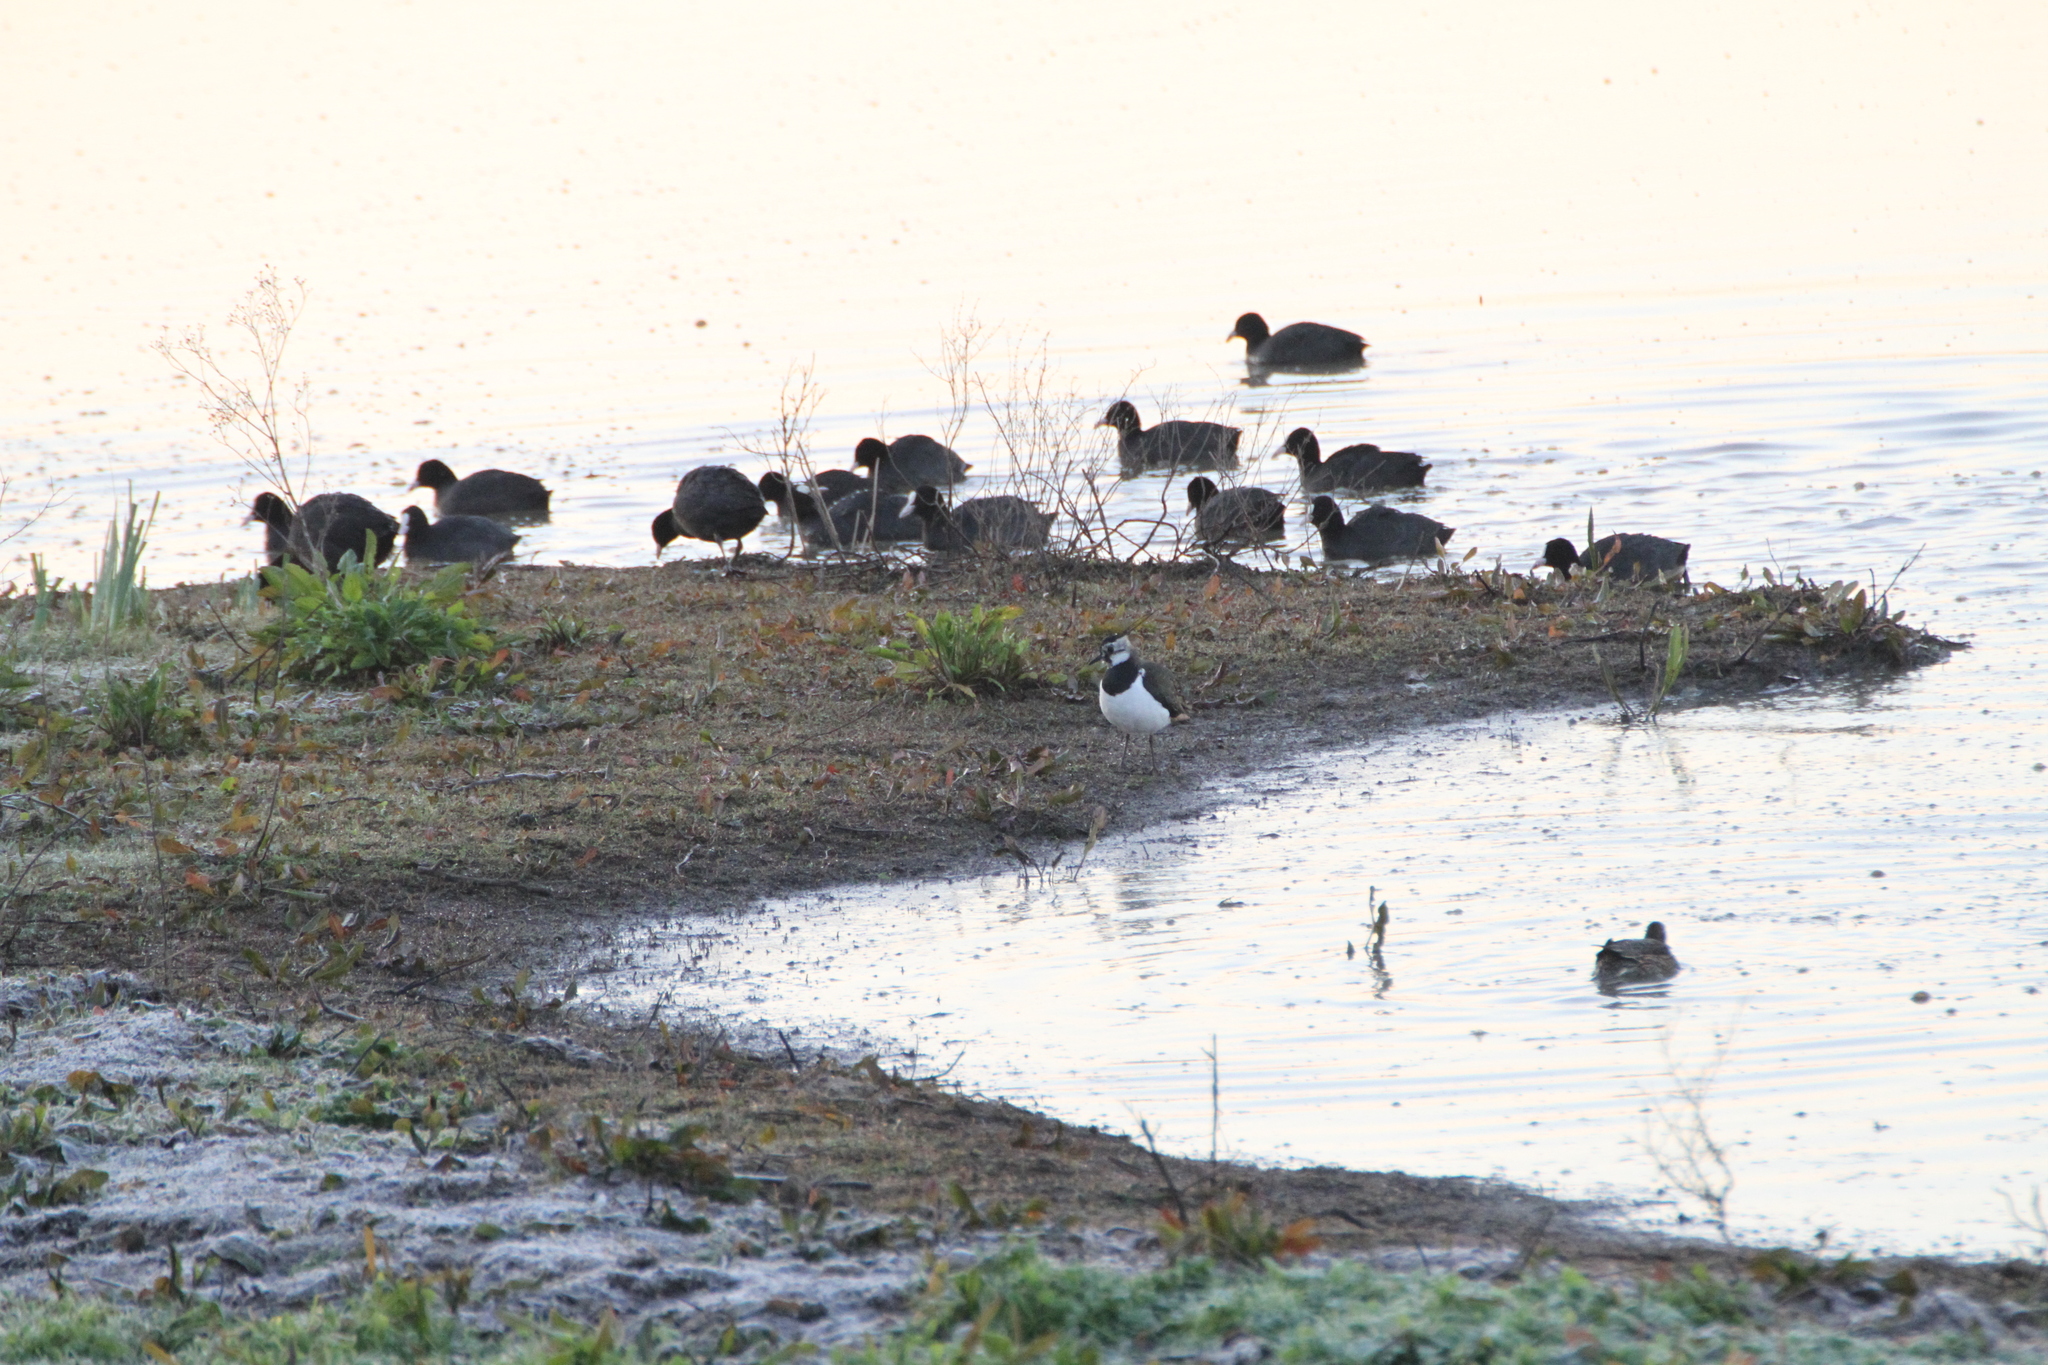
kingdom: Animalia
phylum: Chordata
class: Aves
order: Charadriiformes
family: Charadriidae
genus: Vanellus
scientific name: Vanellus vanellus
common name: Northern lapwing
